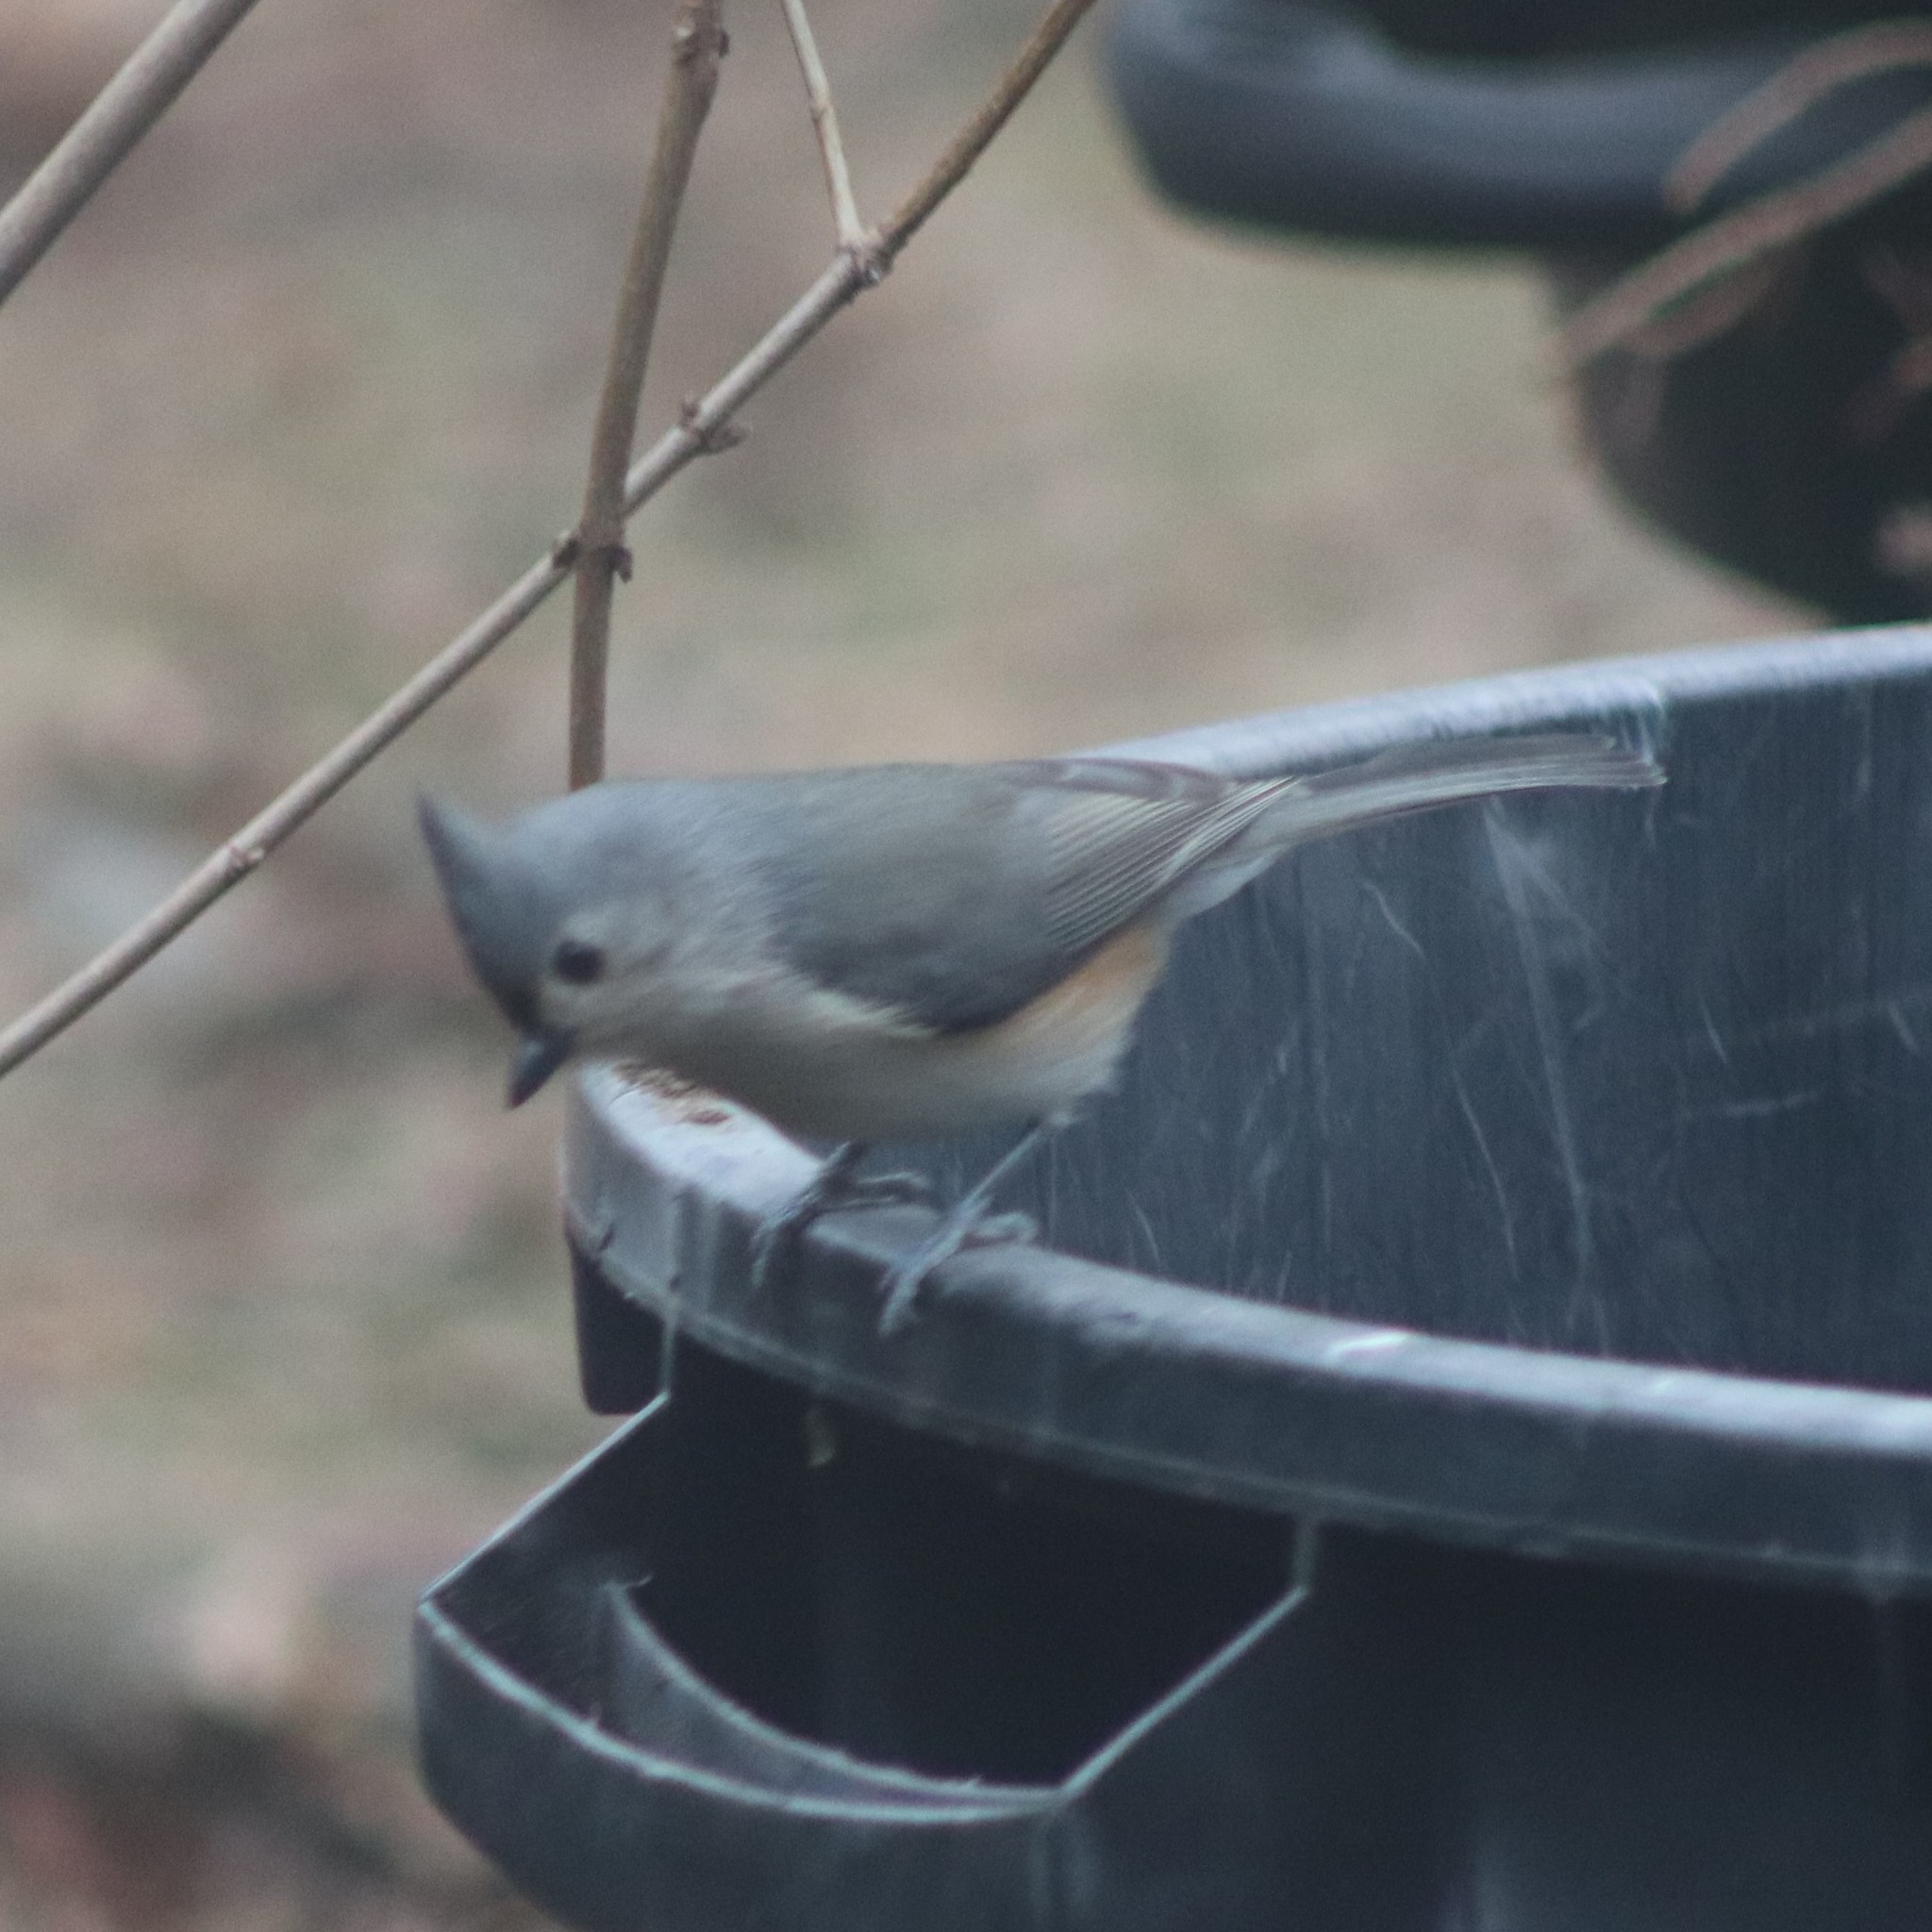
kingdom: Animalia
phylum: Chordata
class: Aves
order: Passeriformes
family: Paridae
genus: Baeolophus
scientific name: Baeolophus bicolor
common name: Tufted titmouse
